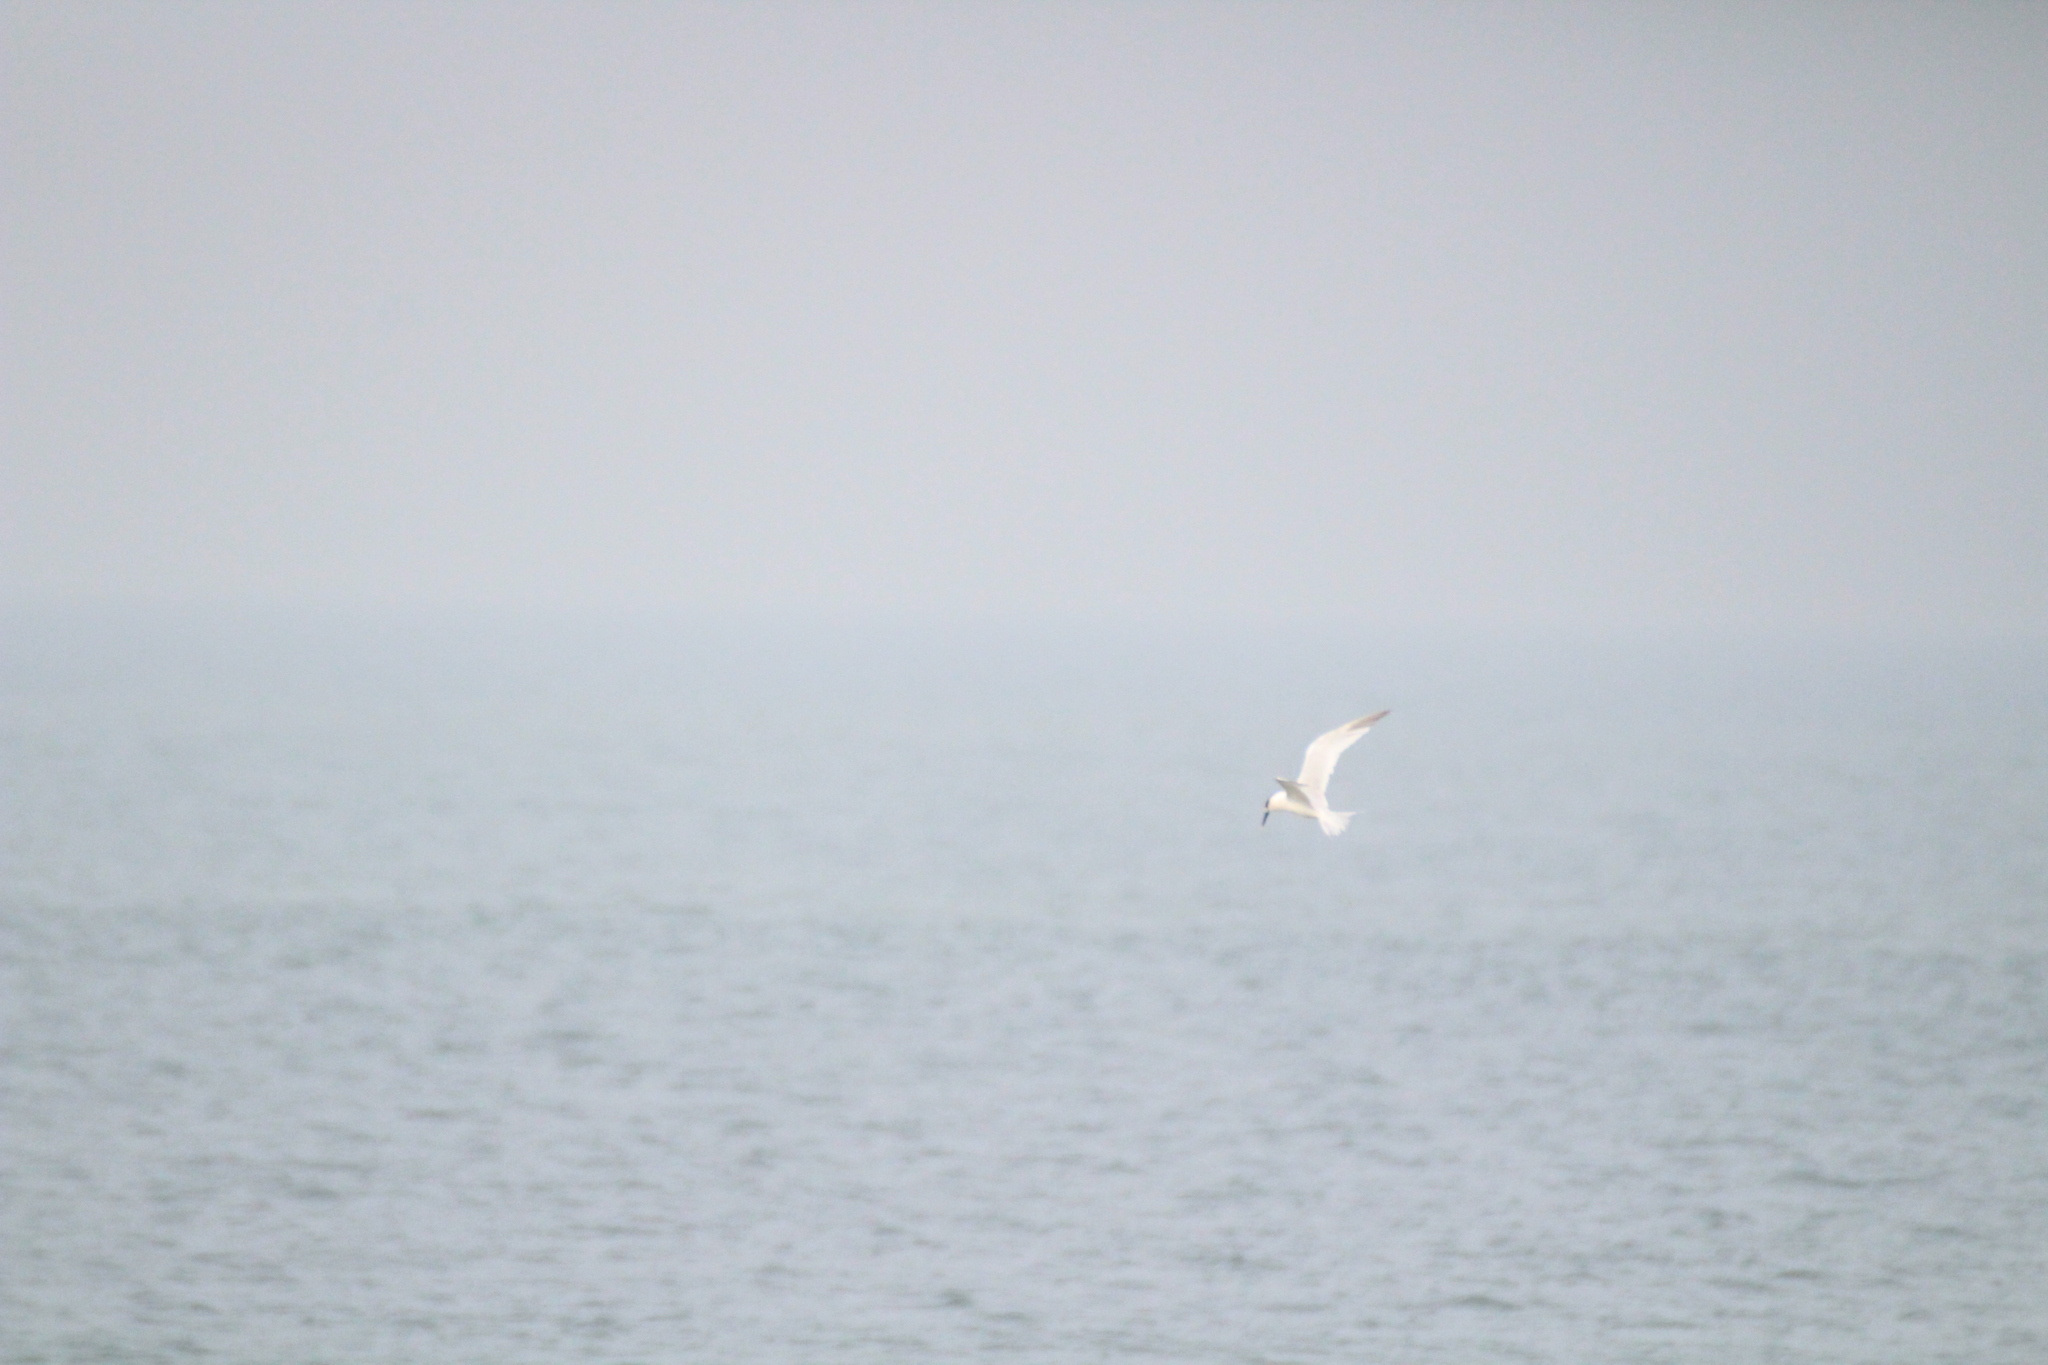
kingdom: Animalia
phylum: Chordata
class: Aves
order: Charadriiformes
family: Laridae
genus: Thalasseus
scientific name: Thalasseus sandvicensis
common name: Sandwich tern
